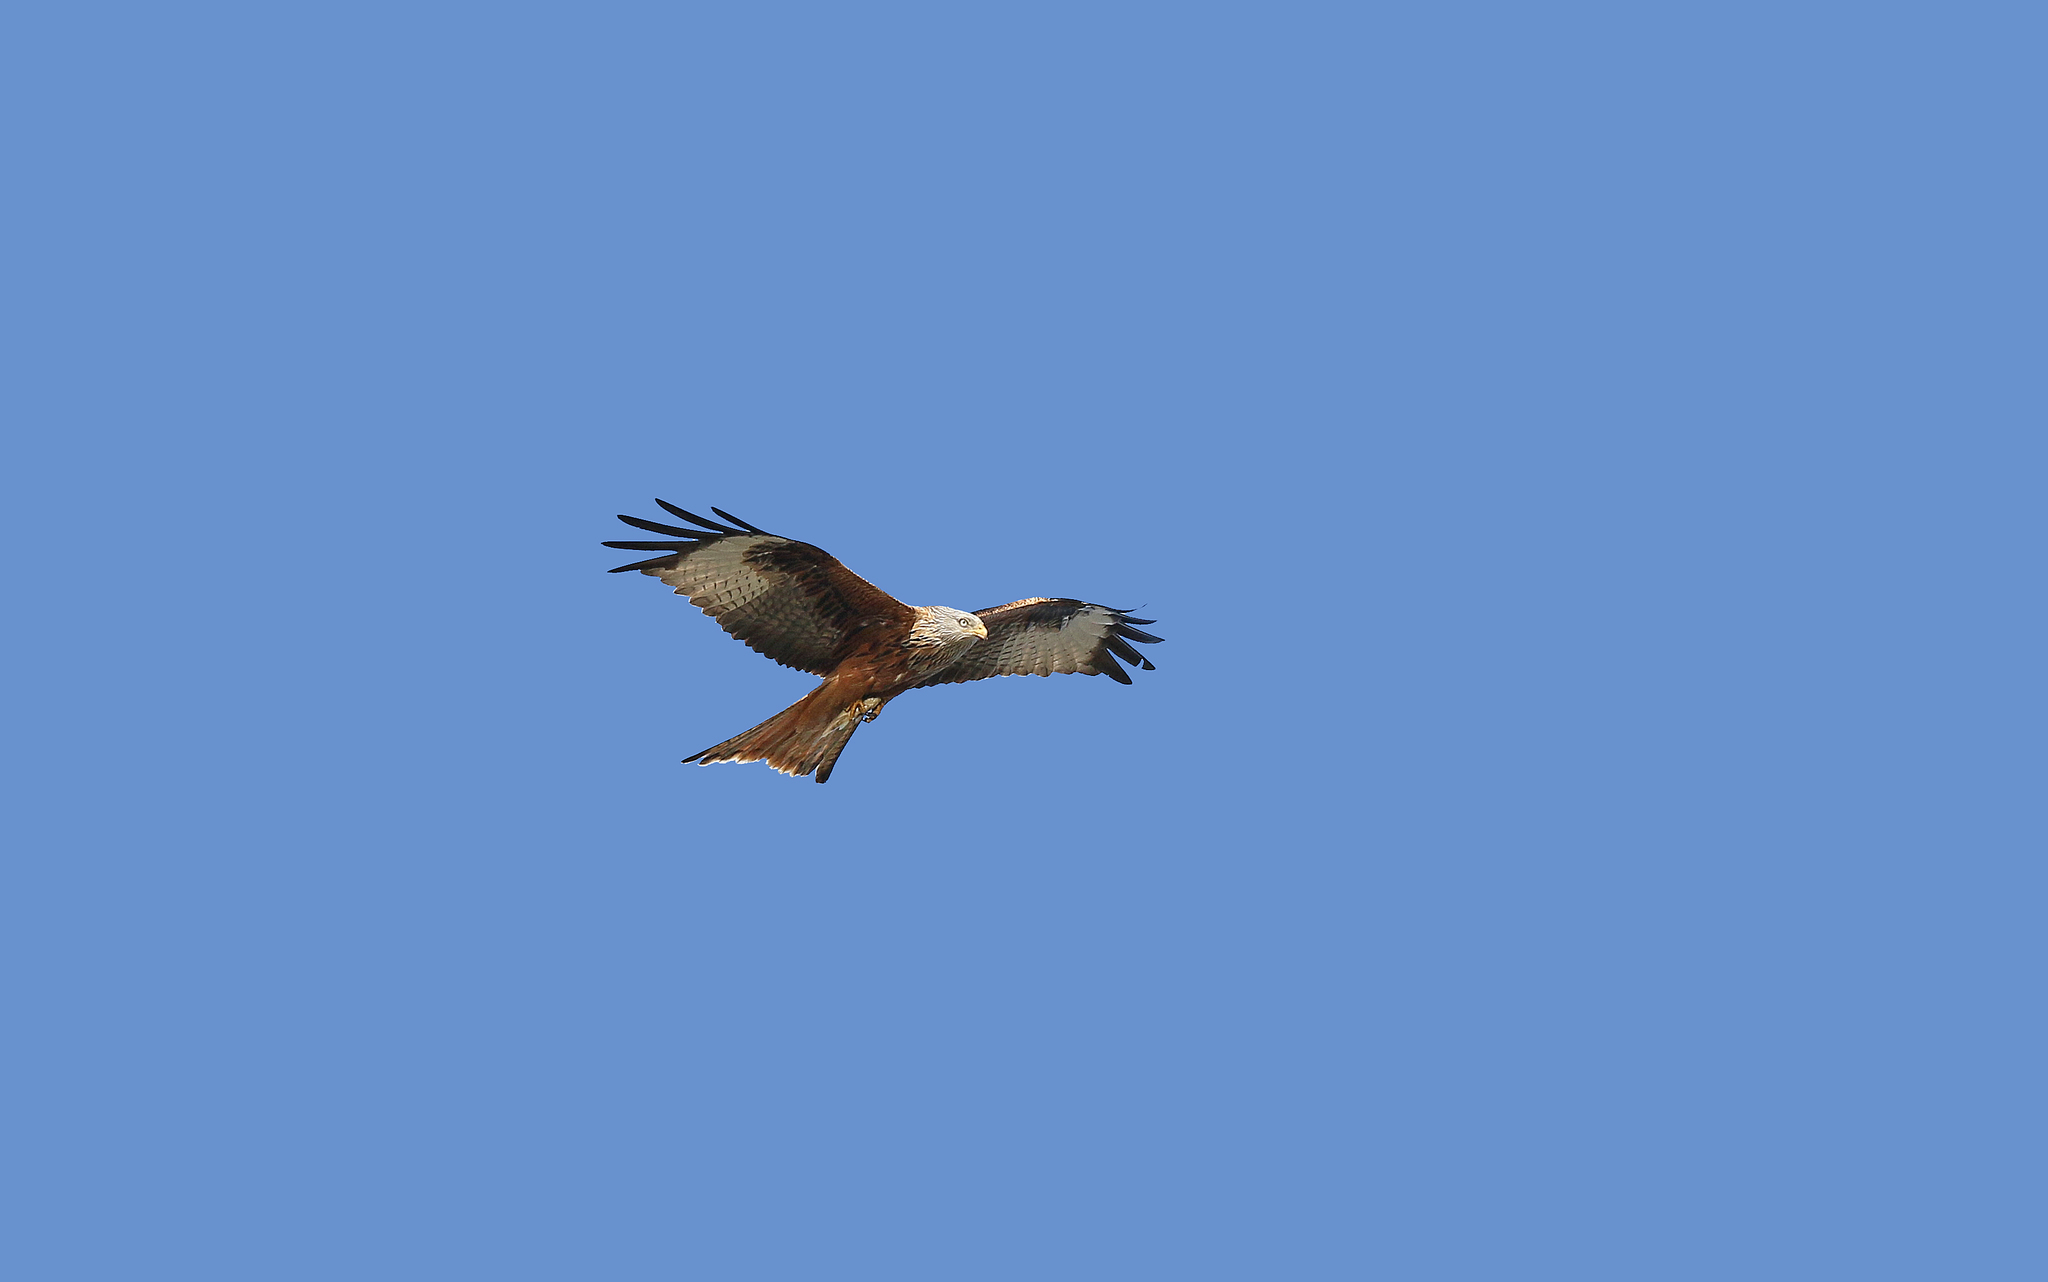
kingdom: Animalia
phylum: Chordata
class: Aves
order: Accipitriformes
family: Accipitridae
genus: Milvus
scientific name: Milvus milvus
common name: Red kite
